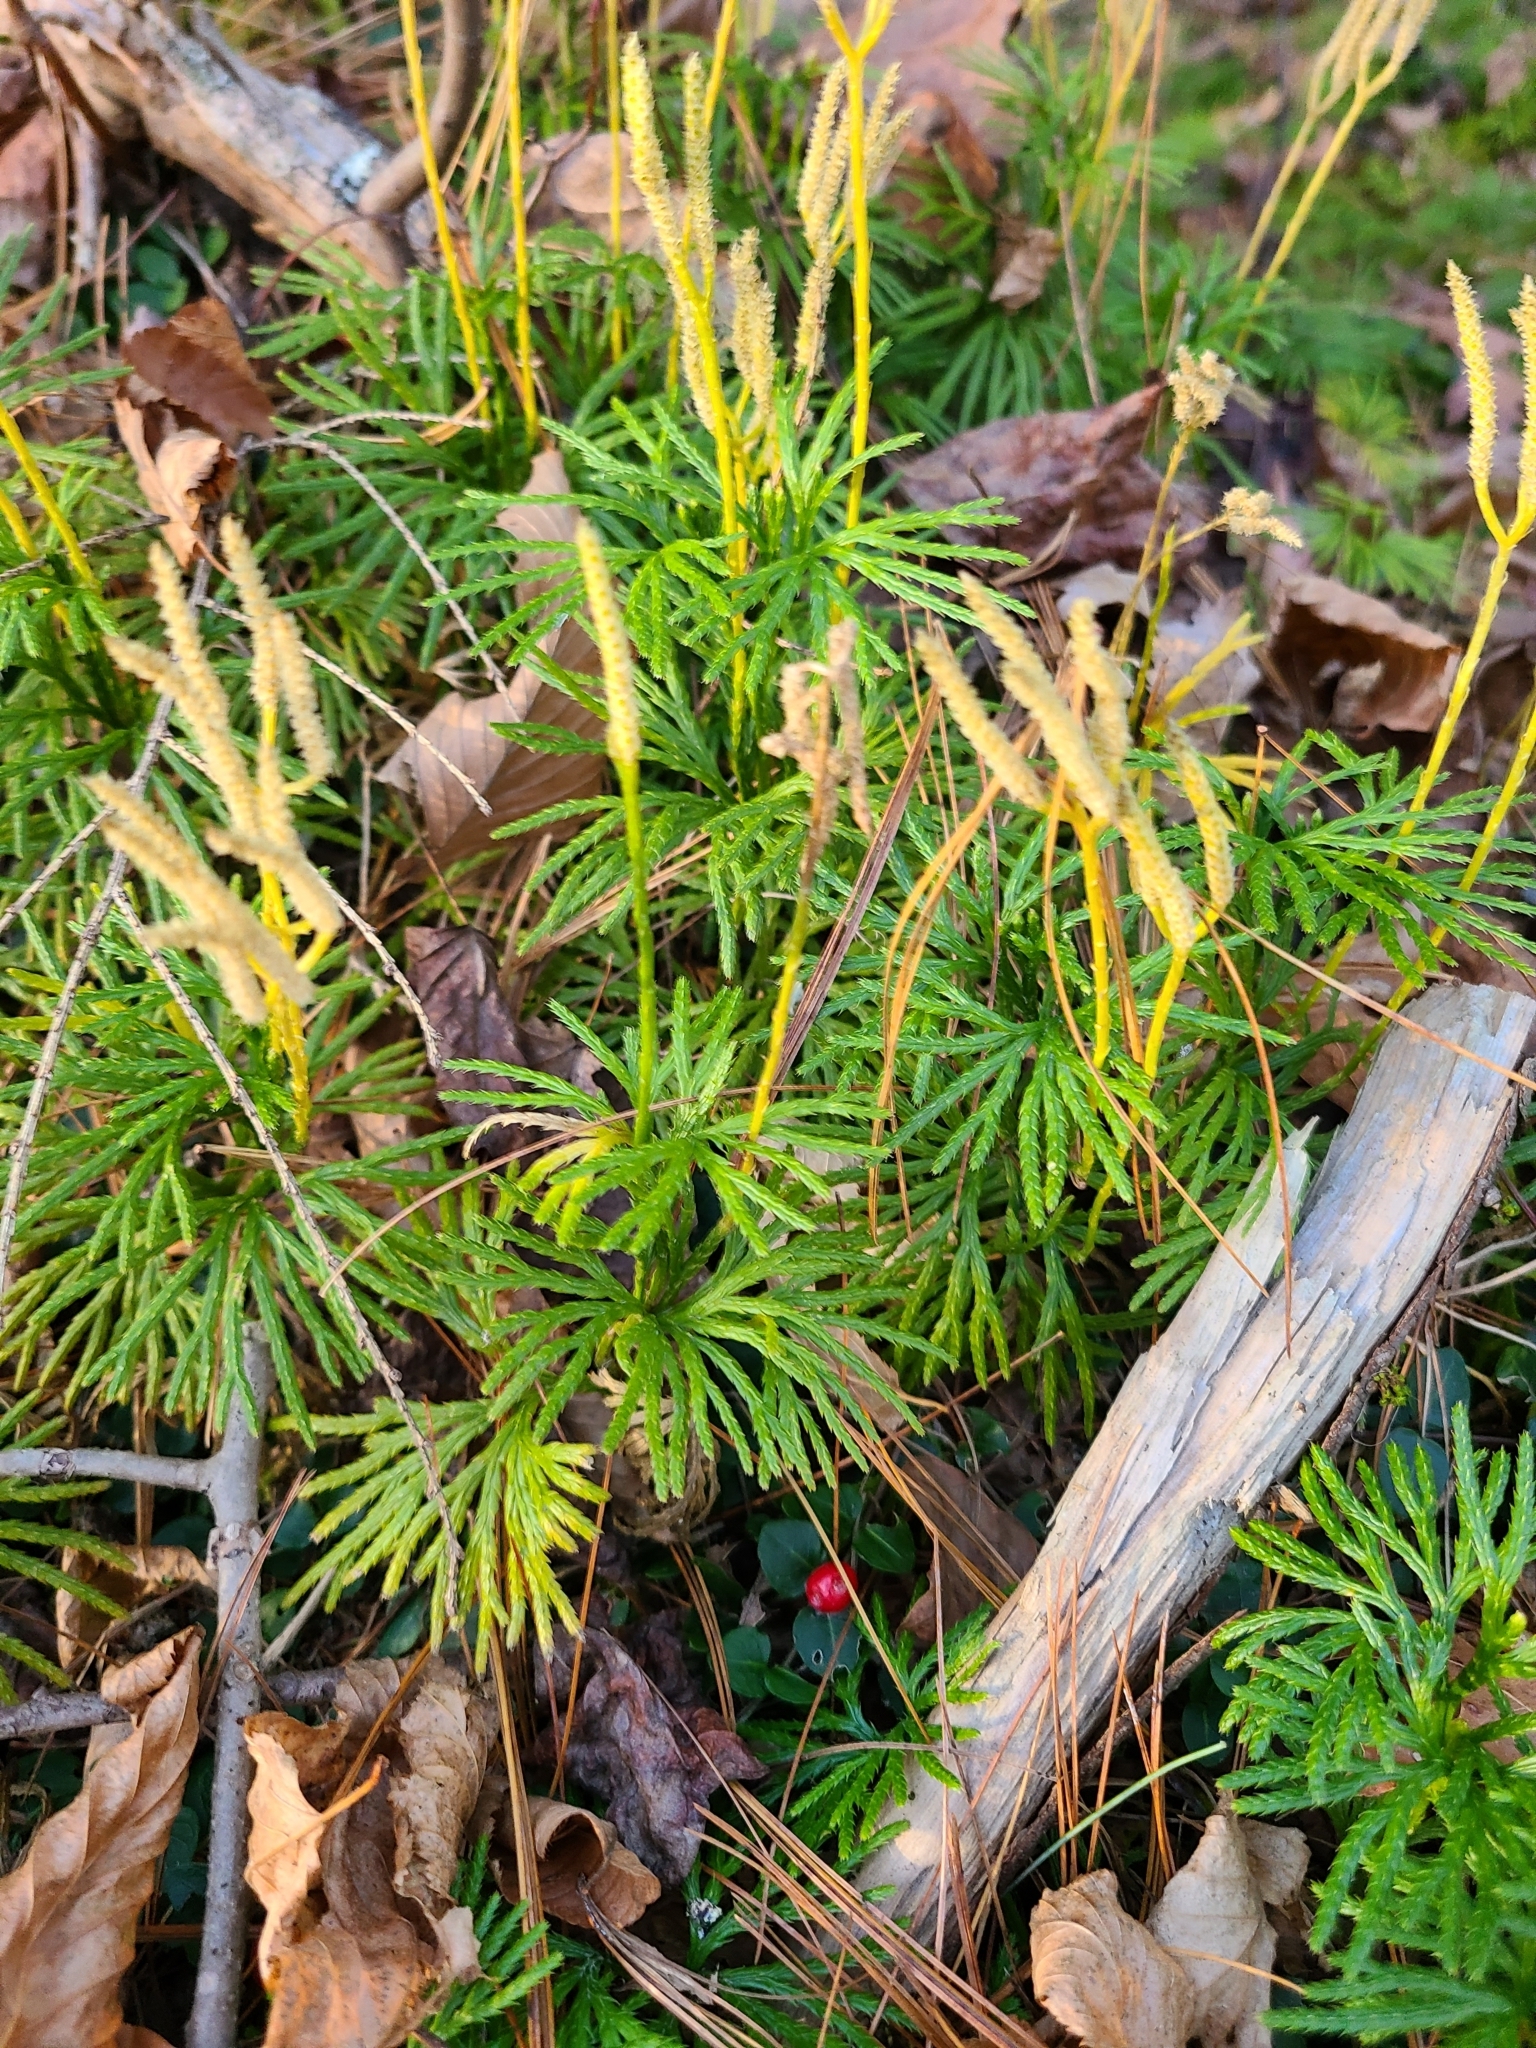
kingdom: Plantae
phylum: Tracheophyta
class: Lycopodiopsida
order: Lycopodiales
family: Lycopodiaceae
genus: Diphasiastrum
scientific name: Diphasiastrum digitatum
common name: Southern running-pine
